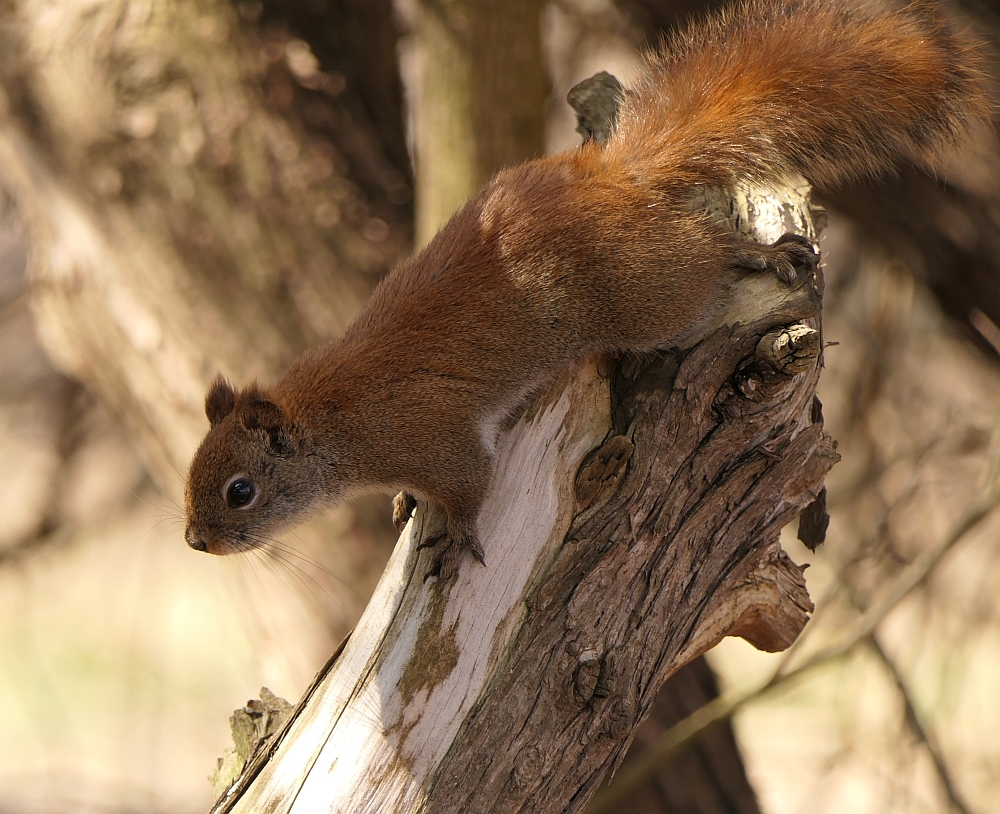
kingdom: Animalia
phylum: Chordata
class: Mammalia
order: Rodentia
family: Sciuridae
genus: Tamiasciurus
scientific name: Tamiasciurus hudsonicus
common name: Red squirrel
